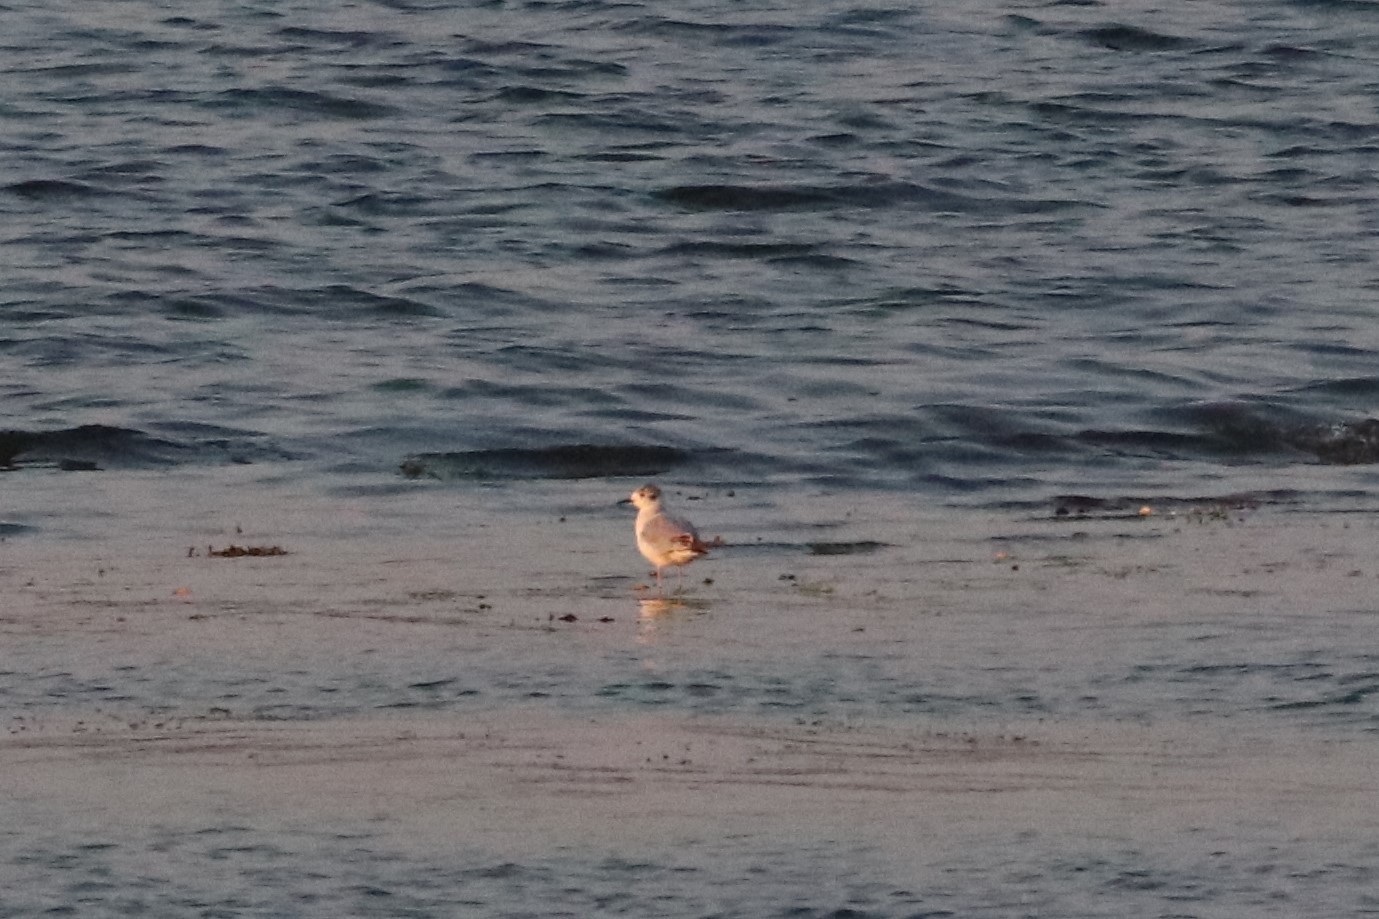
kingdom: Animalia
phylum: Chordata
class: Aves
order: Charadriiformes
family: Laridae
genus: Chroicocephalus
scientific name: Chroicocephalus philadelphia
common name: Bonaparte's gull
